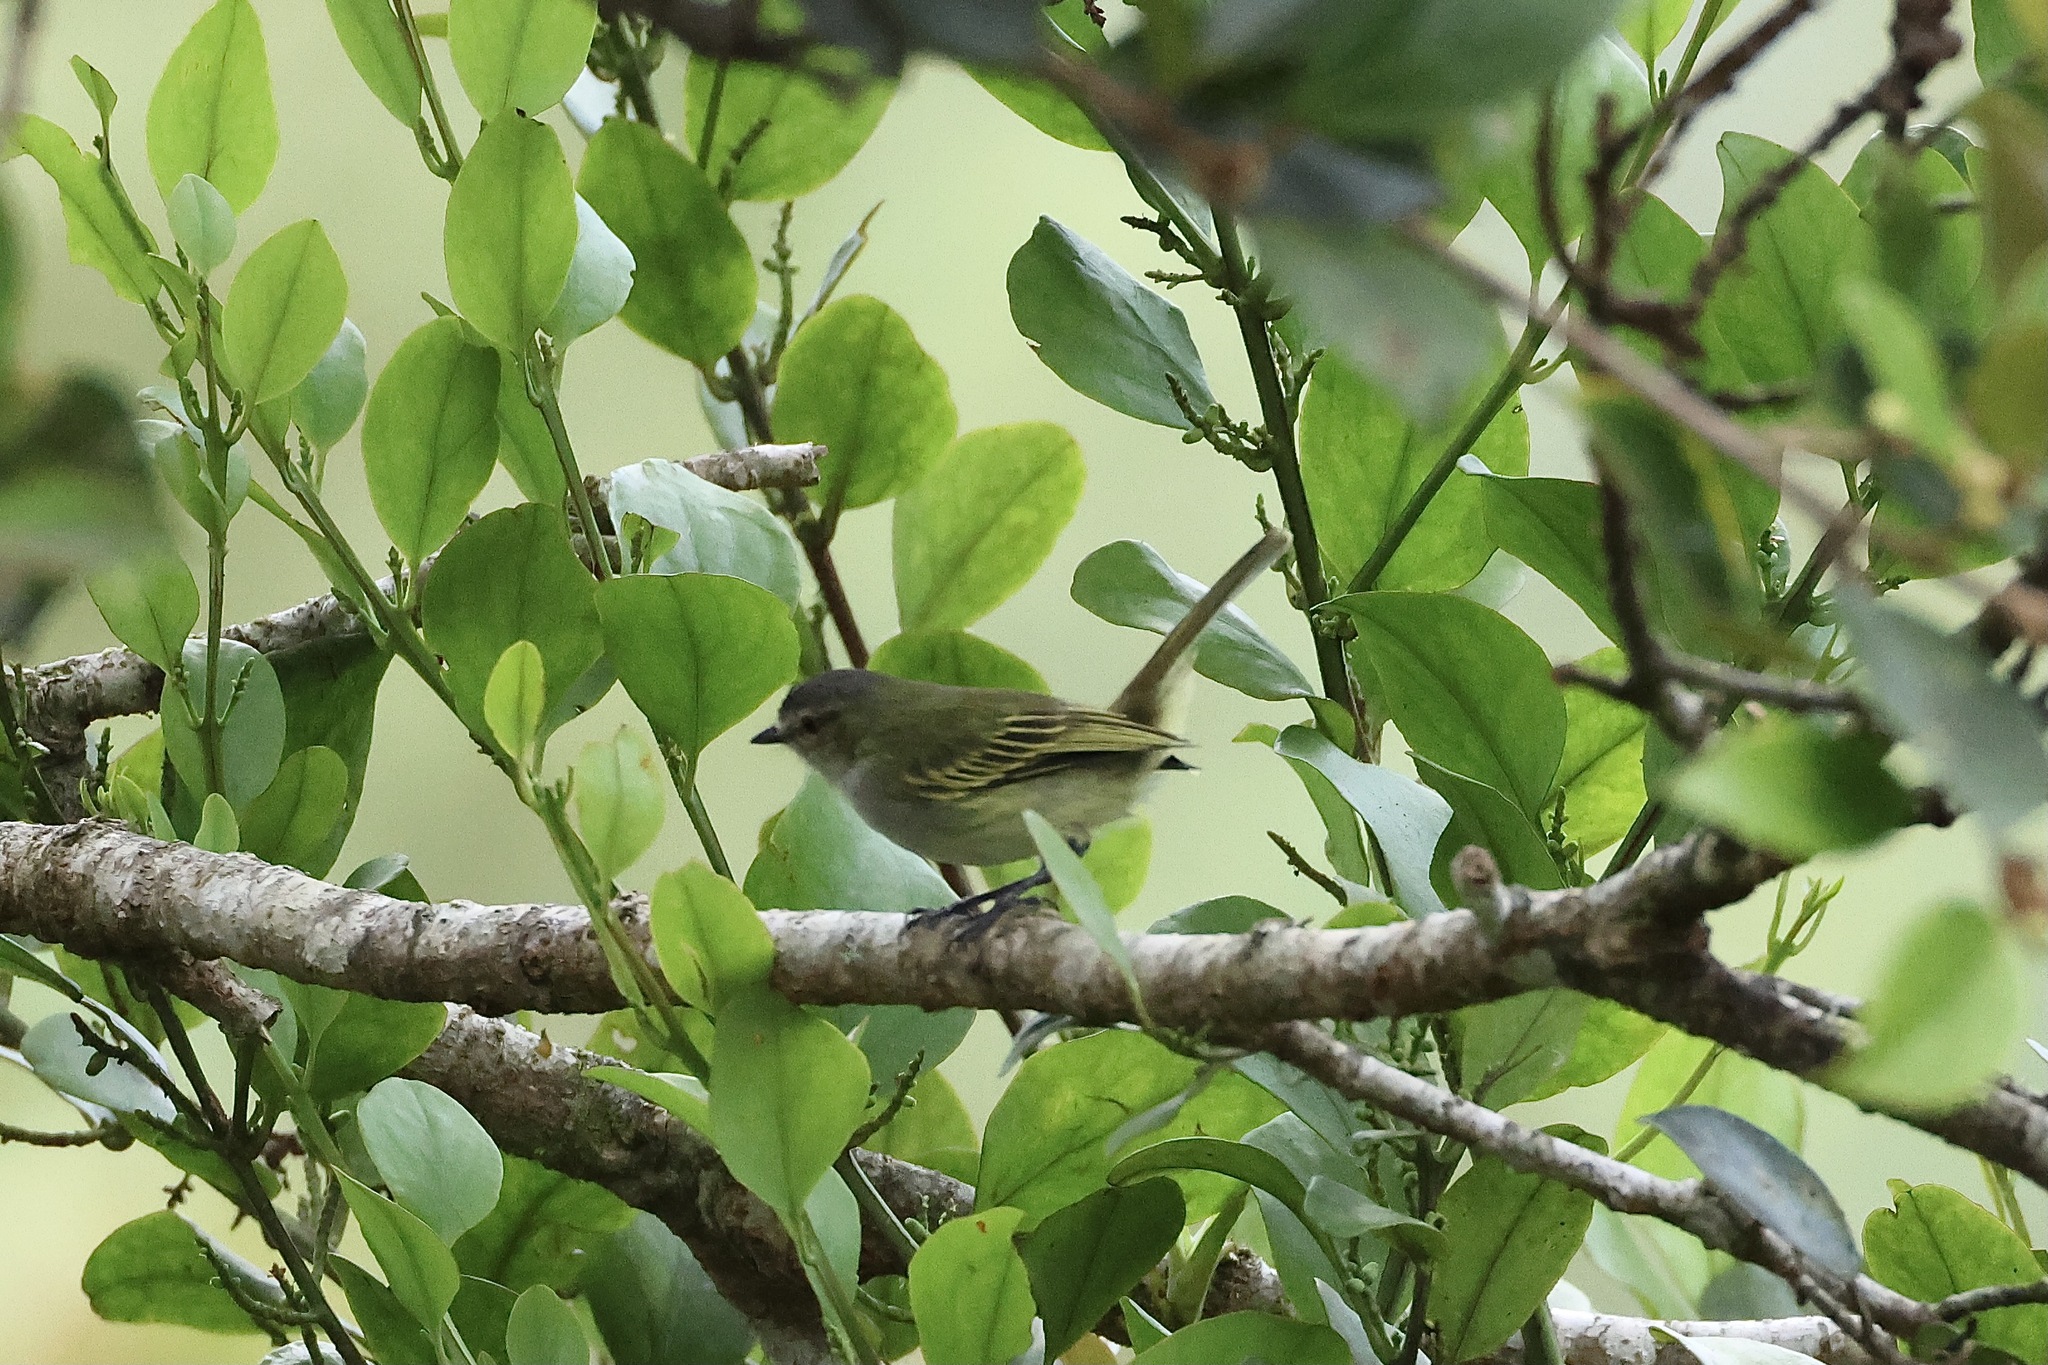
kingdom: Animalia
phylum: Chordata
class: Aves
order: Passeriformes
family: Tyrannidae
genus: Zimmerius
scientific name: Zimmerius vilissimus
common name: Paltry tyrannulet
